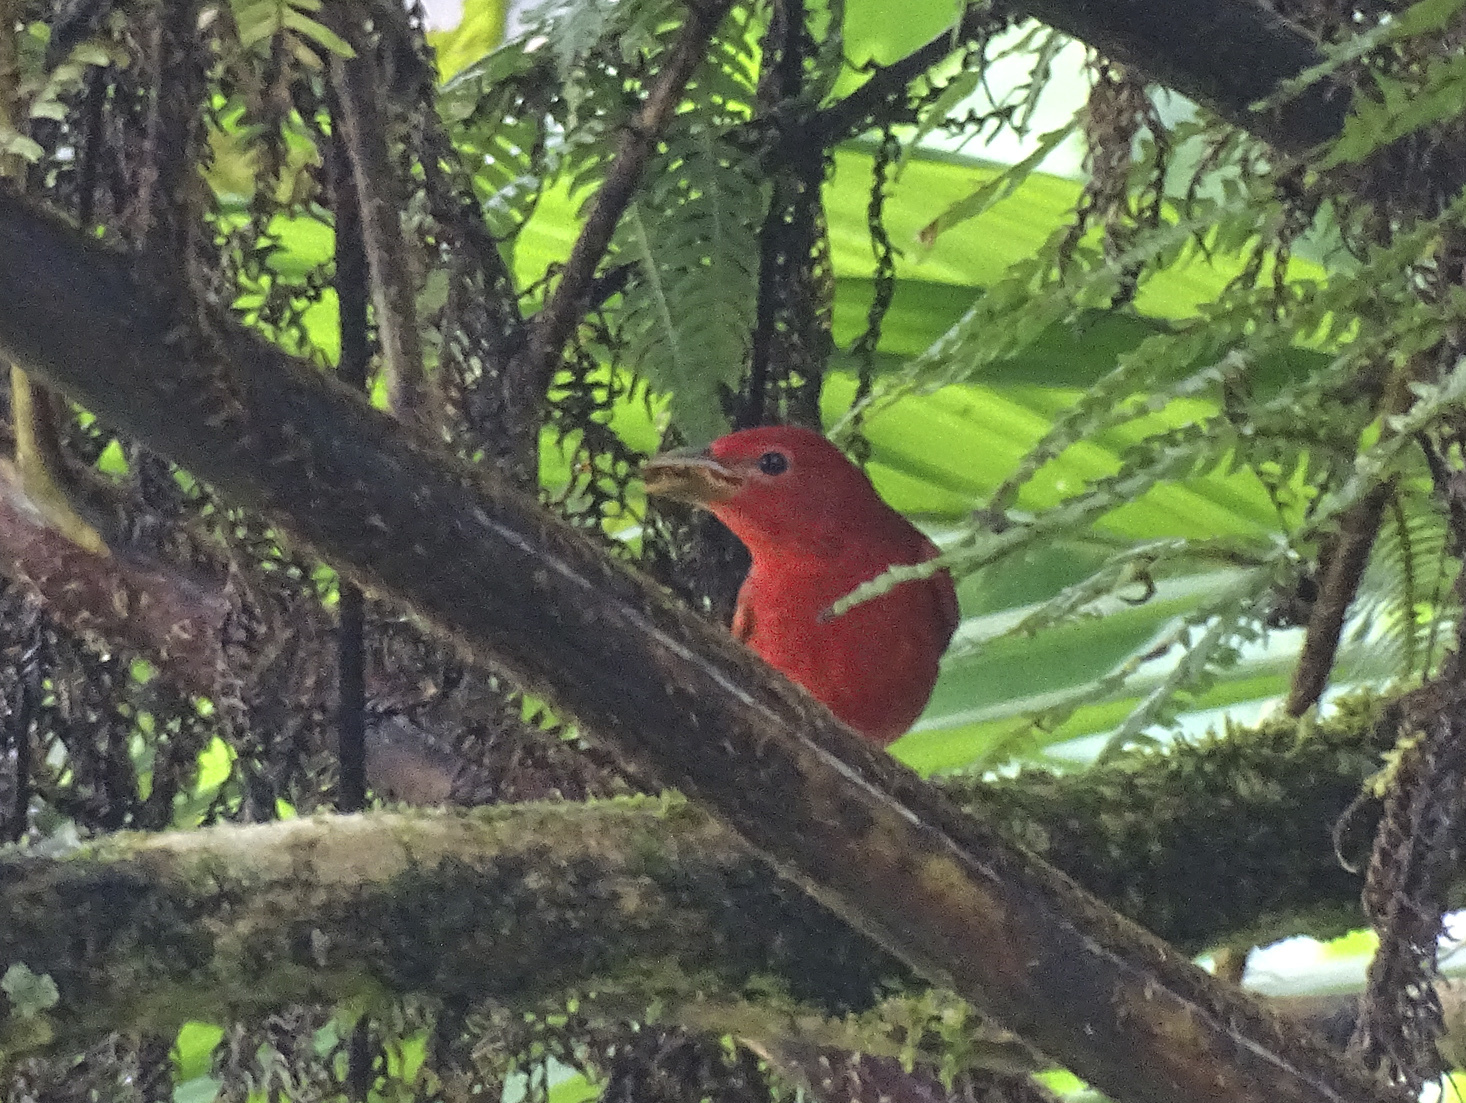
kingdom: Animalia
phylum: Chordata
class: Aves
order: Passeriformes
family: Cardinalidae
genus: Piranga
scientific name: Piranga rubra
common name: Summer tanager
